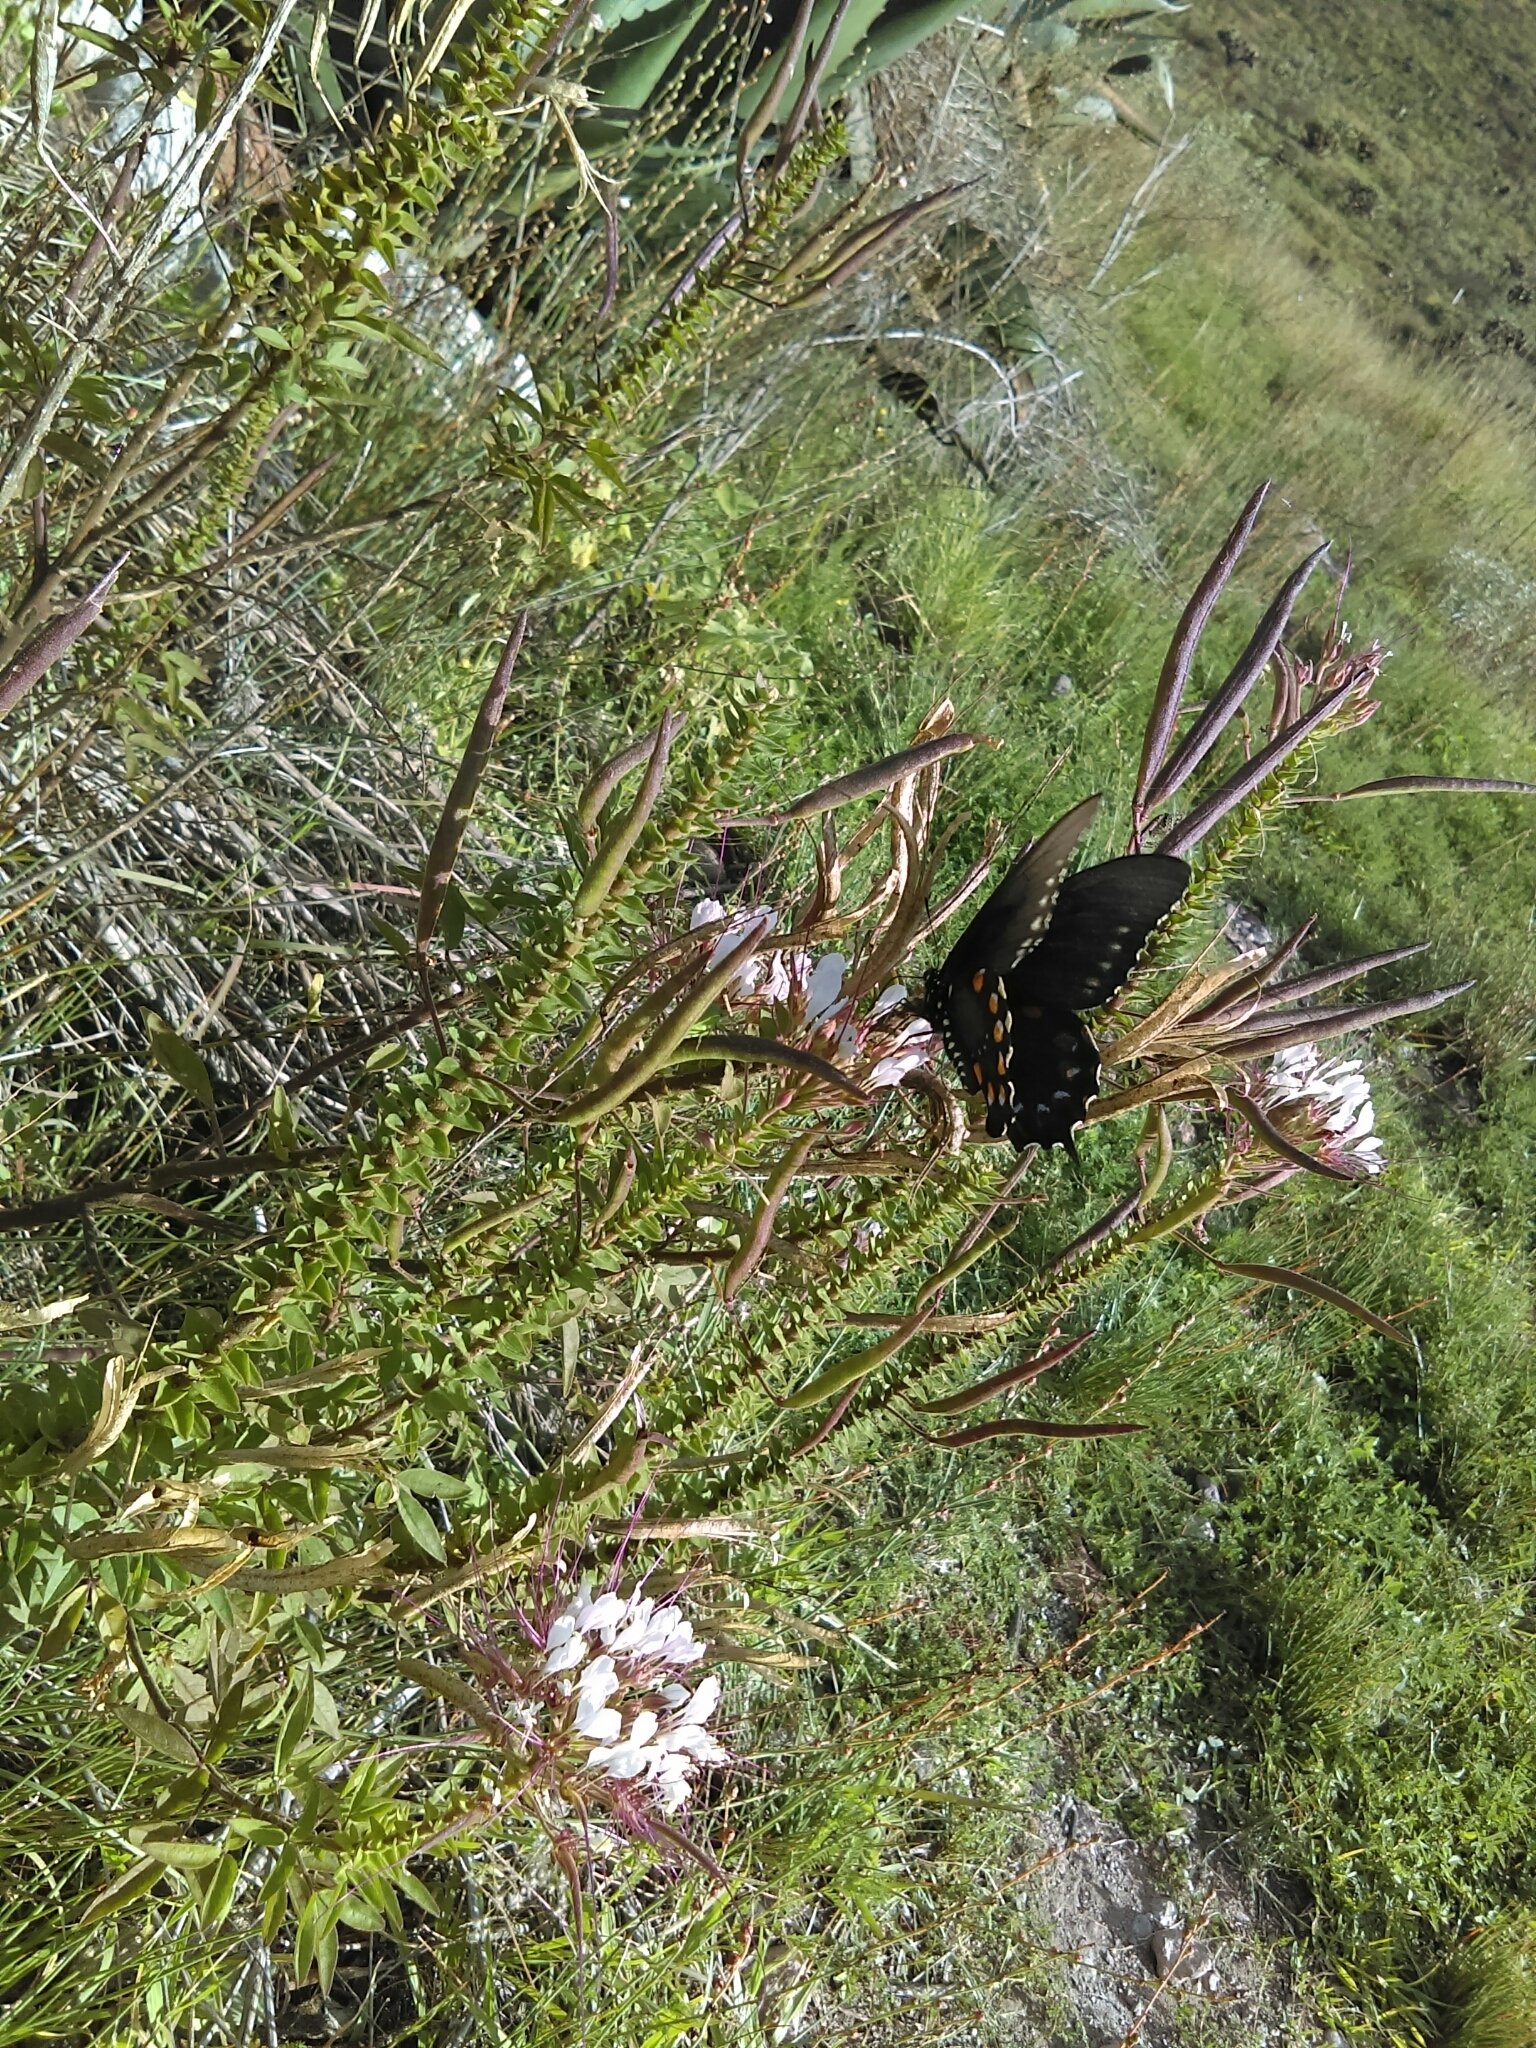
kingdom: Animalia
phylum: Arthropoda
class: Insecta
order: Lepidoptera
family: Papilionidae
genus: Battus
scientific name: Battus philenor
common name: Pipevine swallowtail
